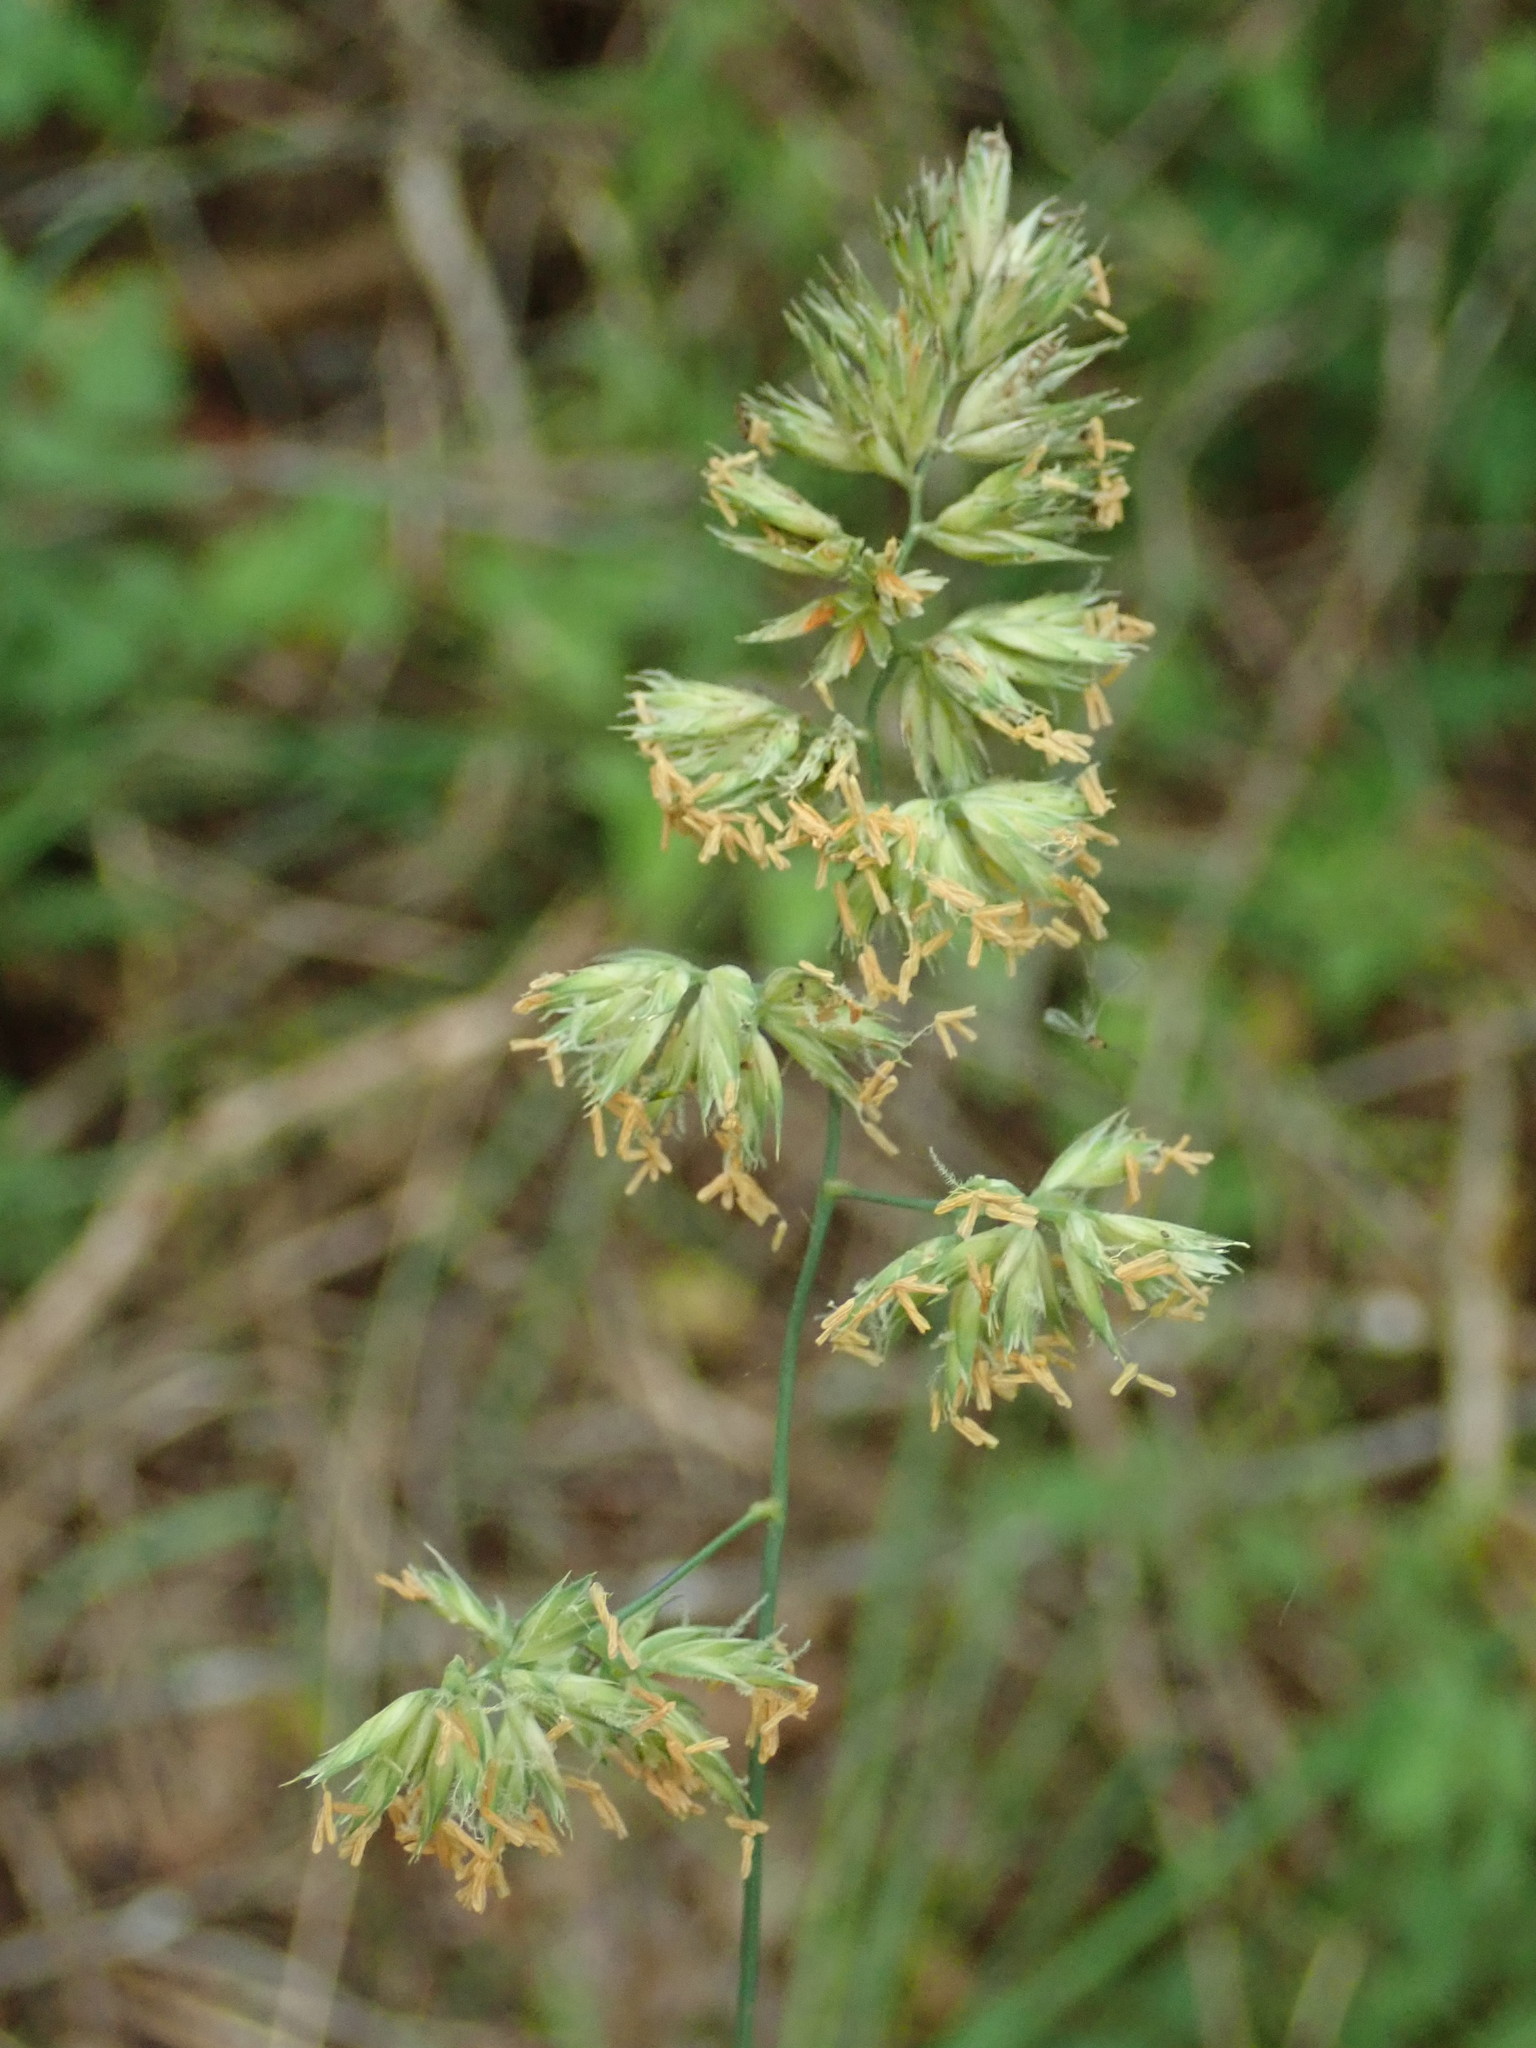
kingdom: Plantae
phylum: Tracheophyta
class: Liliopsida
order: Poales
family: Poaceae
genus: Dactylis
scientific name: Dactylis glomerata
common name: Orchardgrass
